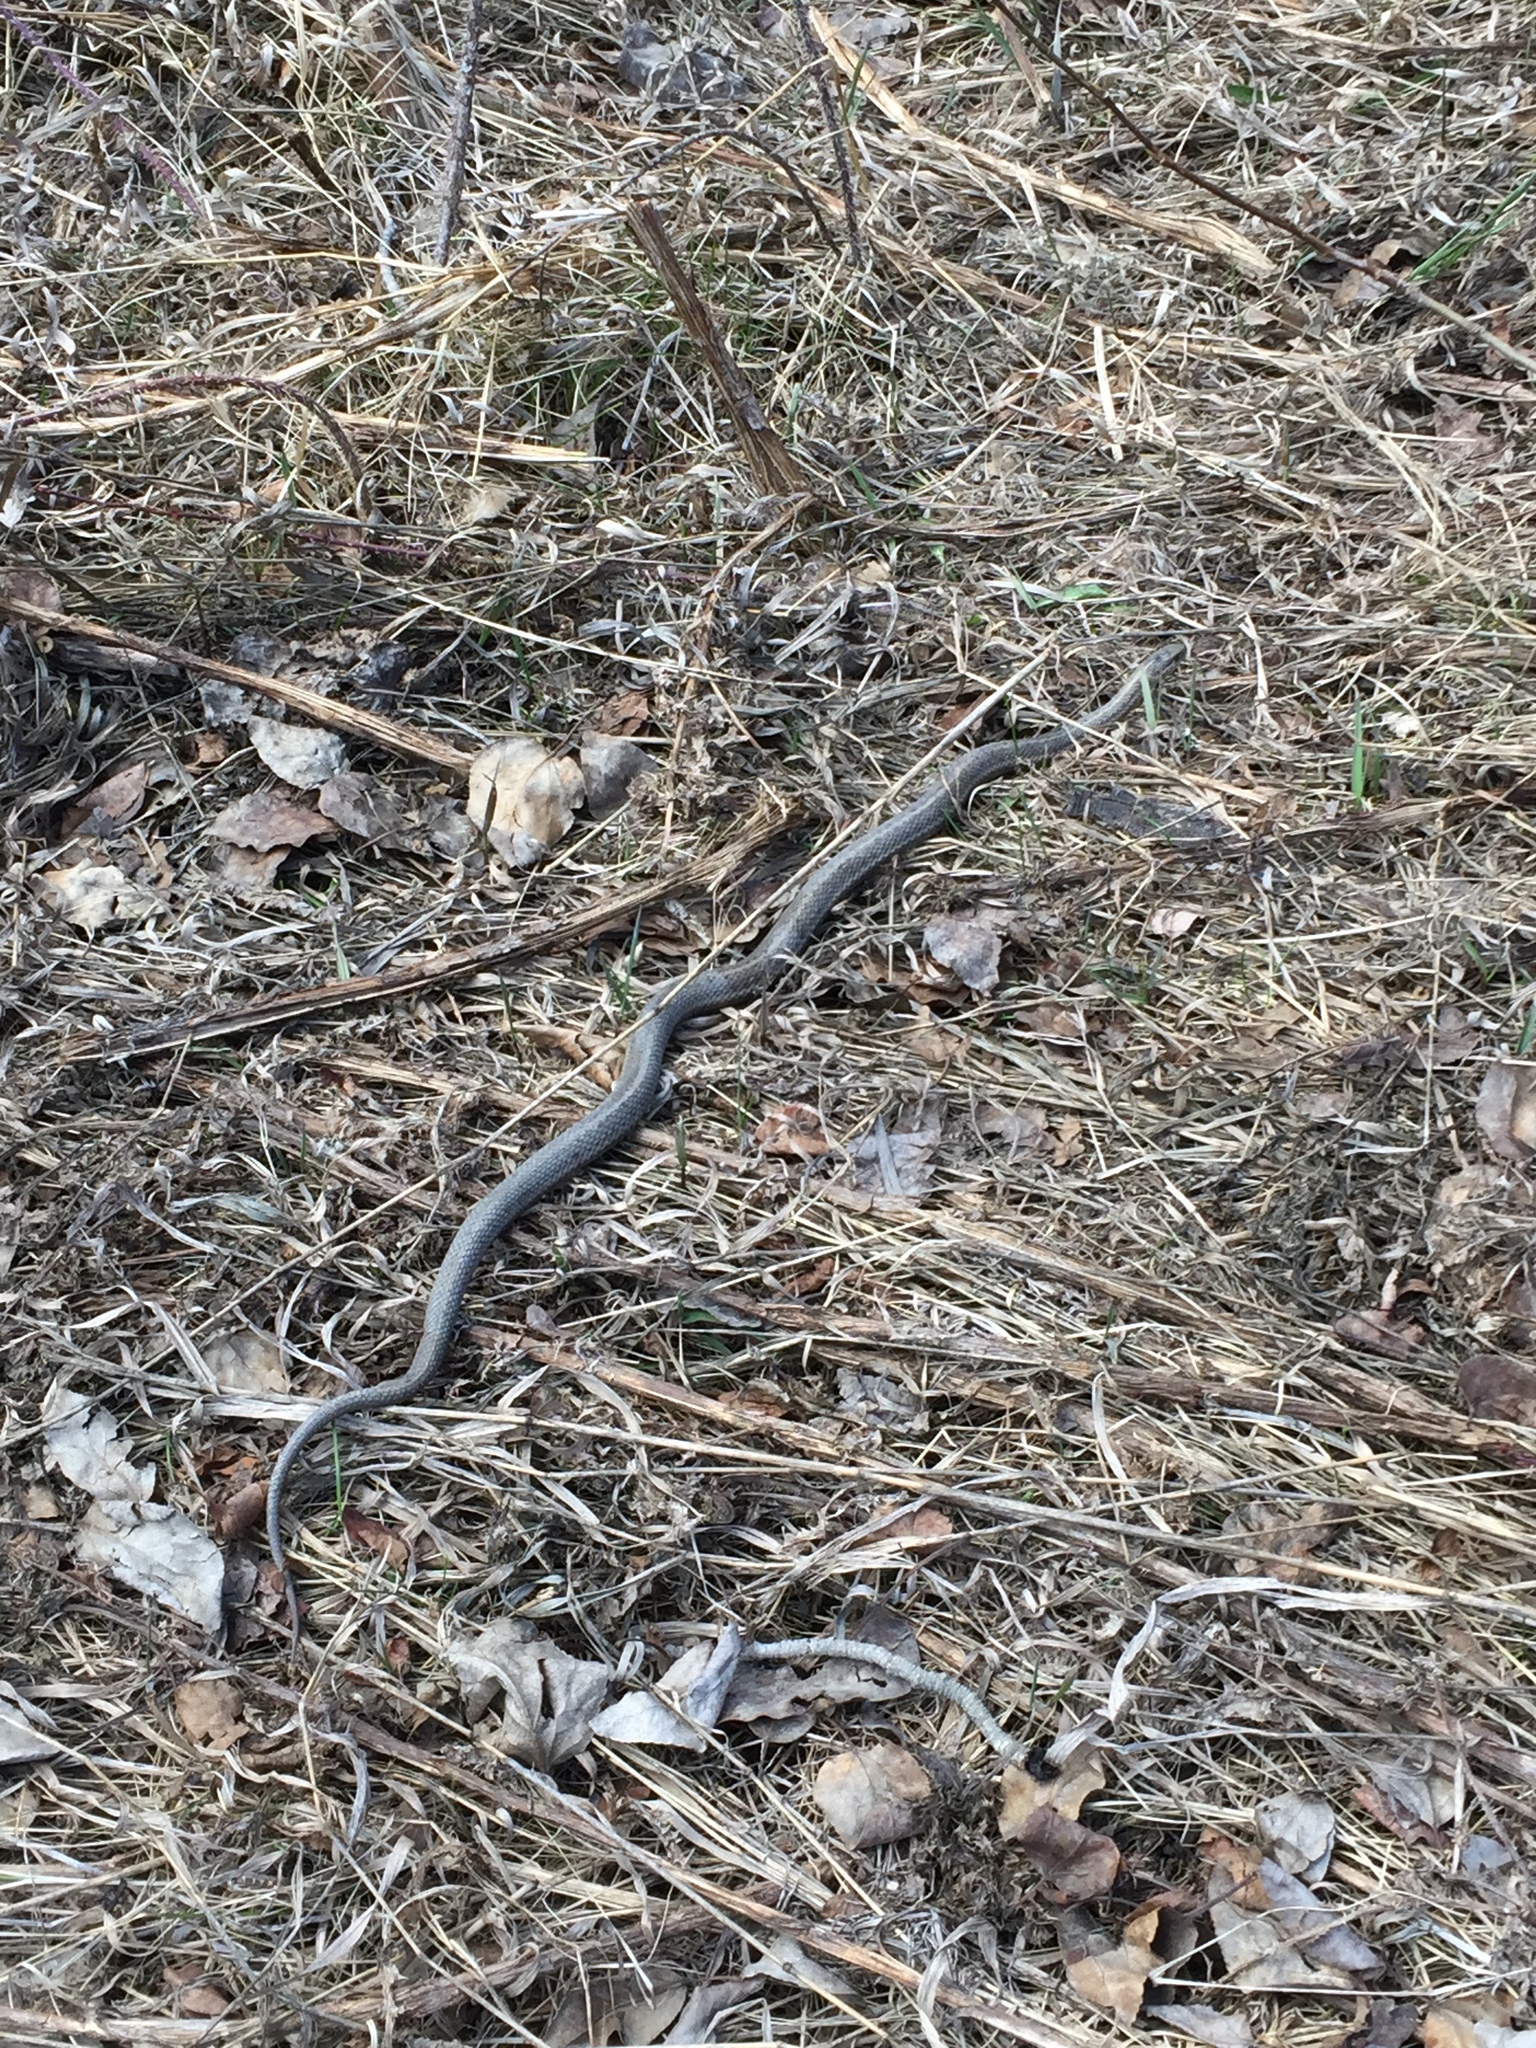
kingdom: Animalia
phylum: Chordata
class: Squamata
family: Colubridae
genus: Thamnophis
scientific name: Thamnophis elegans
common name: Western terrestrial garter snake
